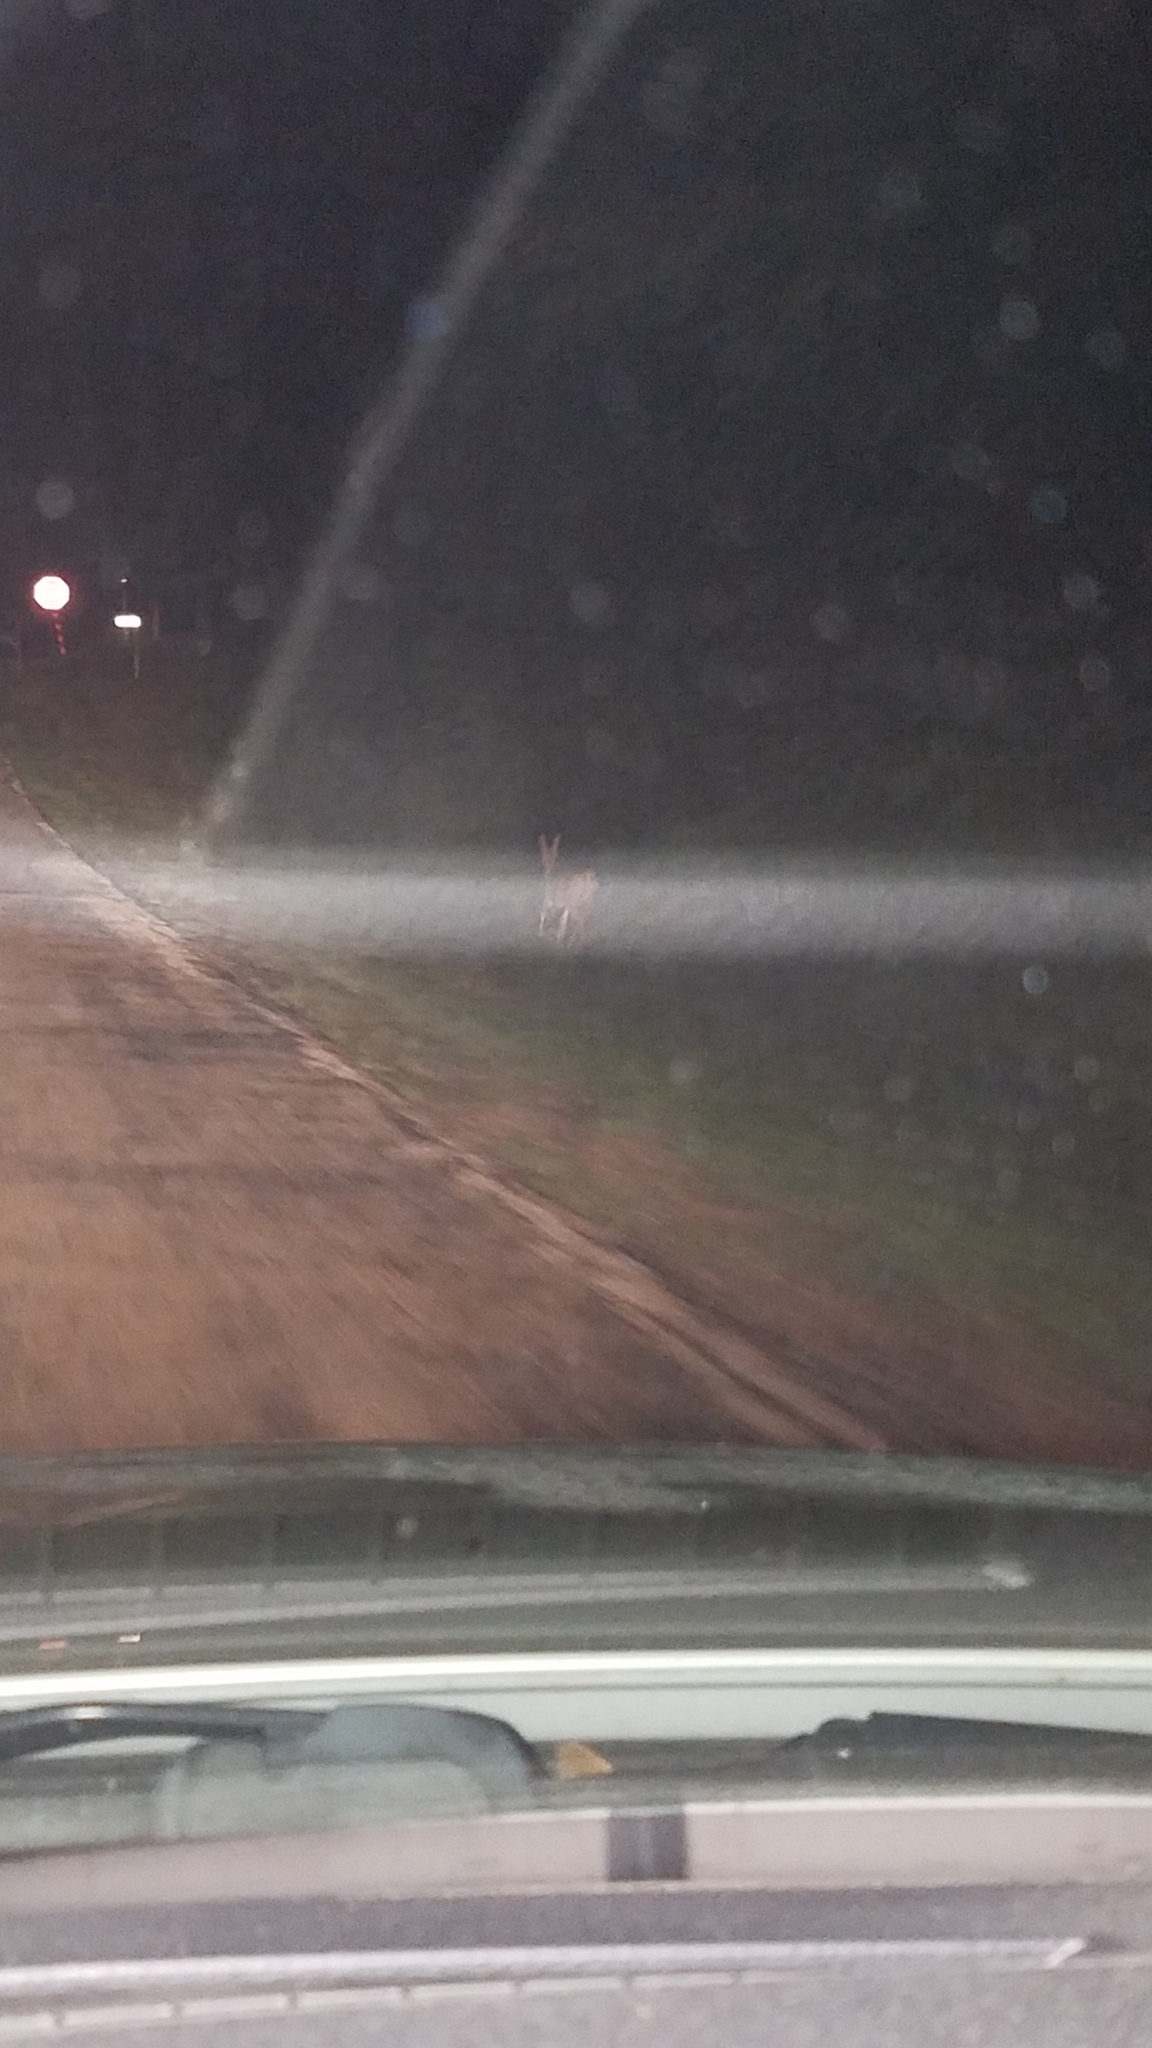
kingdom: Animalia
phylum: Chordata
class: Mammalia
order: Artiodactyla
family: Cervidae
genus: Odocoileus
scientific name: Odocoileus virginianus
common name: White-tailed deer
